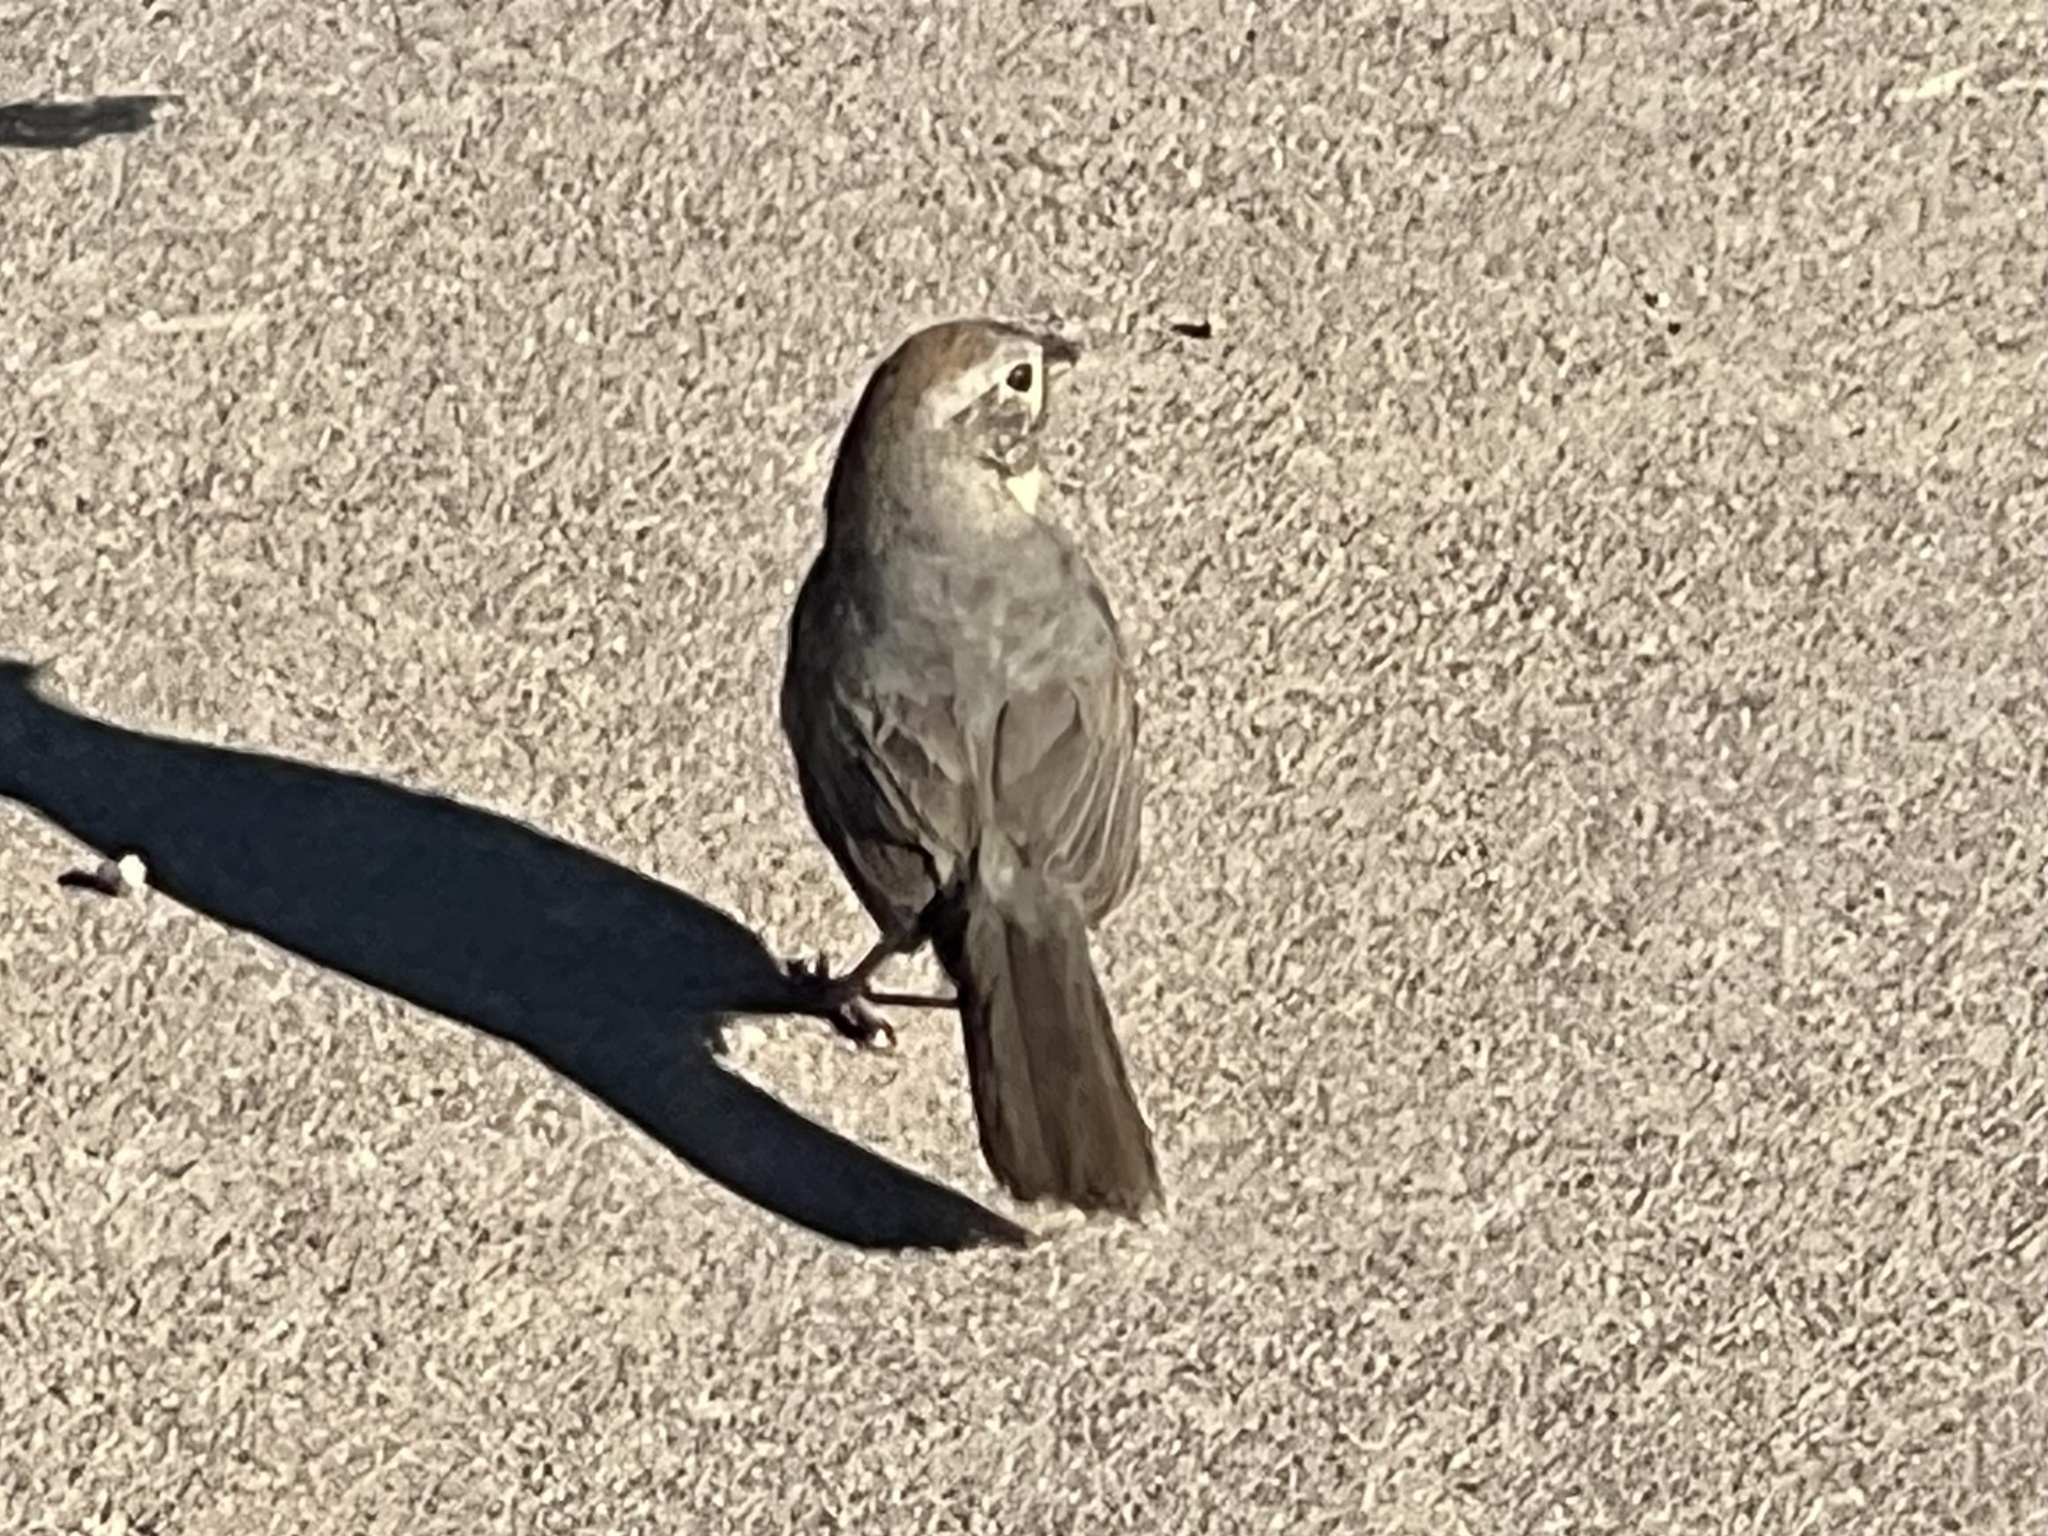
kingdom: Animalia
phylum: Chordata
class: Aves
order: Passeriformes
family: Passerellidae
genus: Melozone
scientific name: Melozone fusca
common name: Canyon towhee
